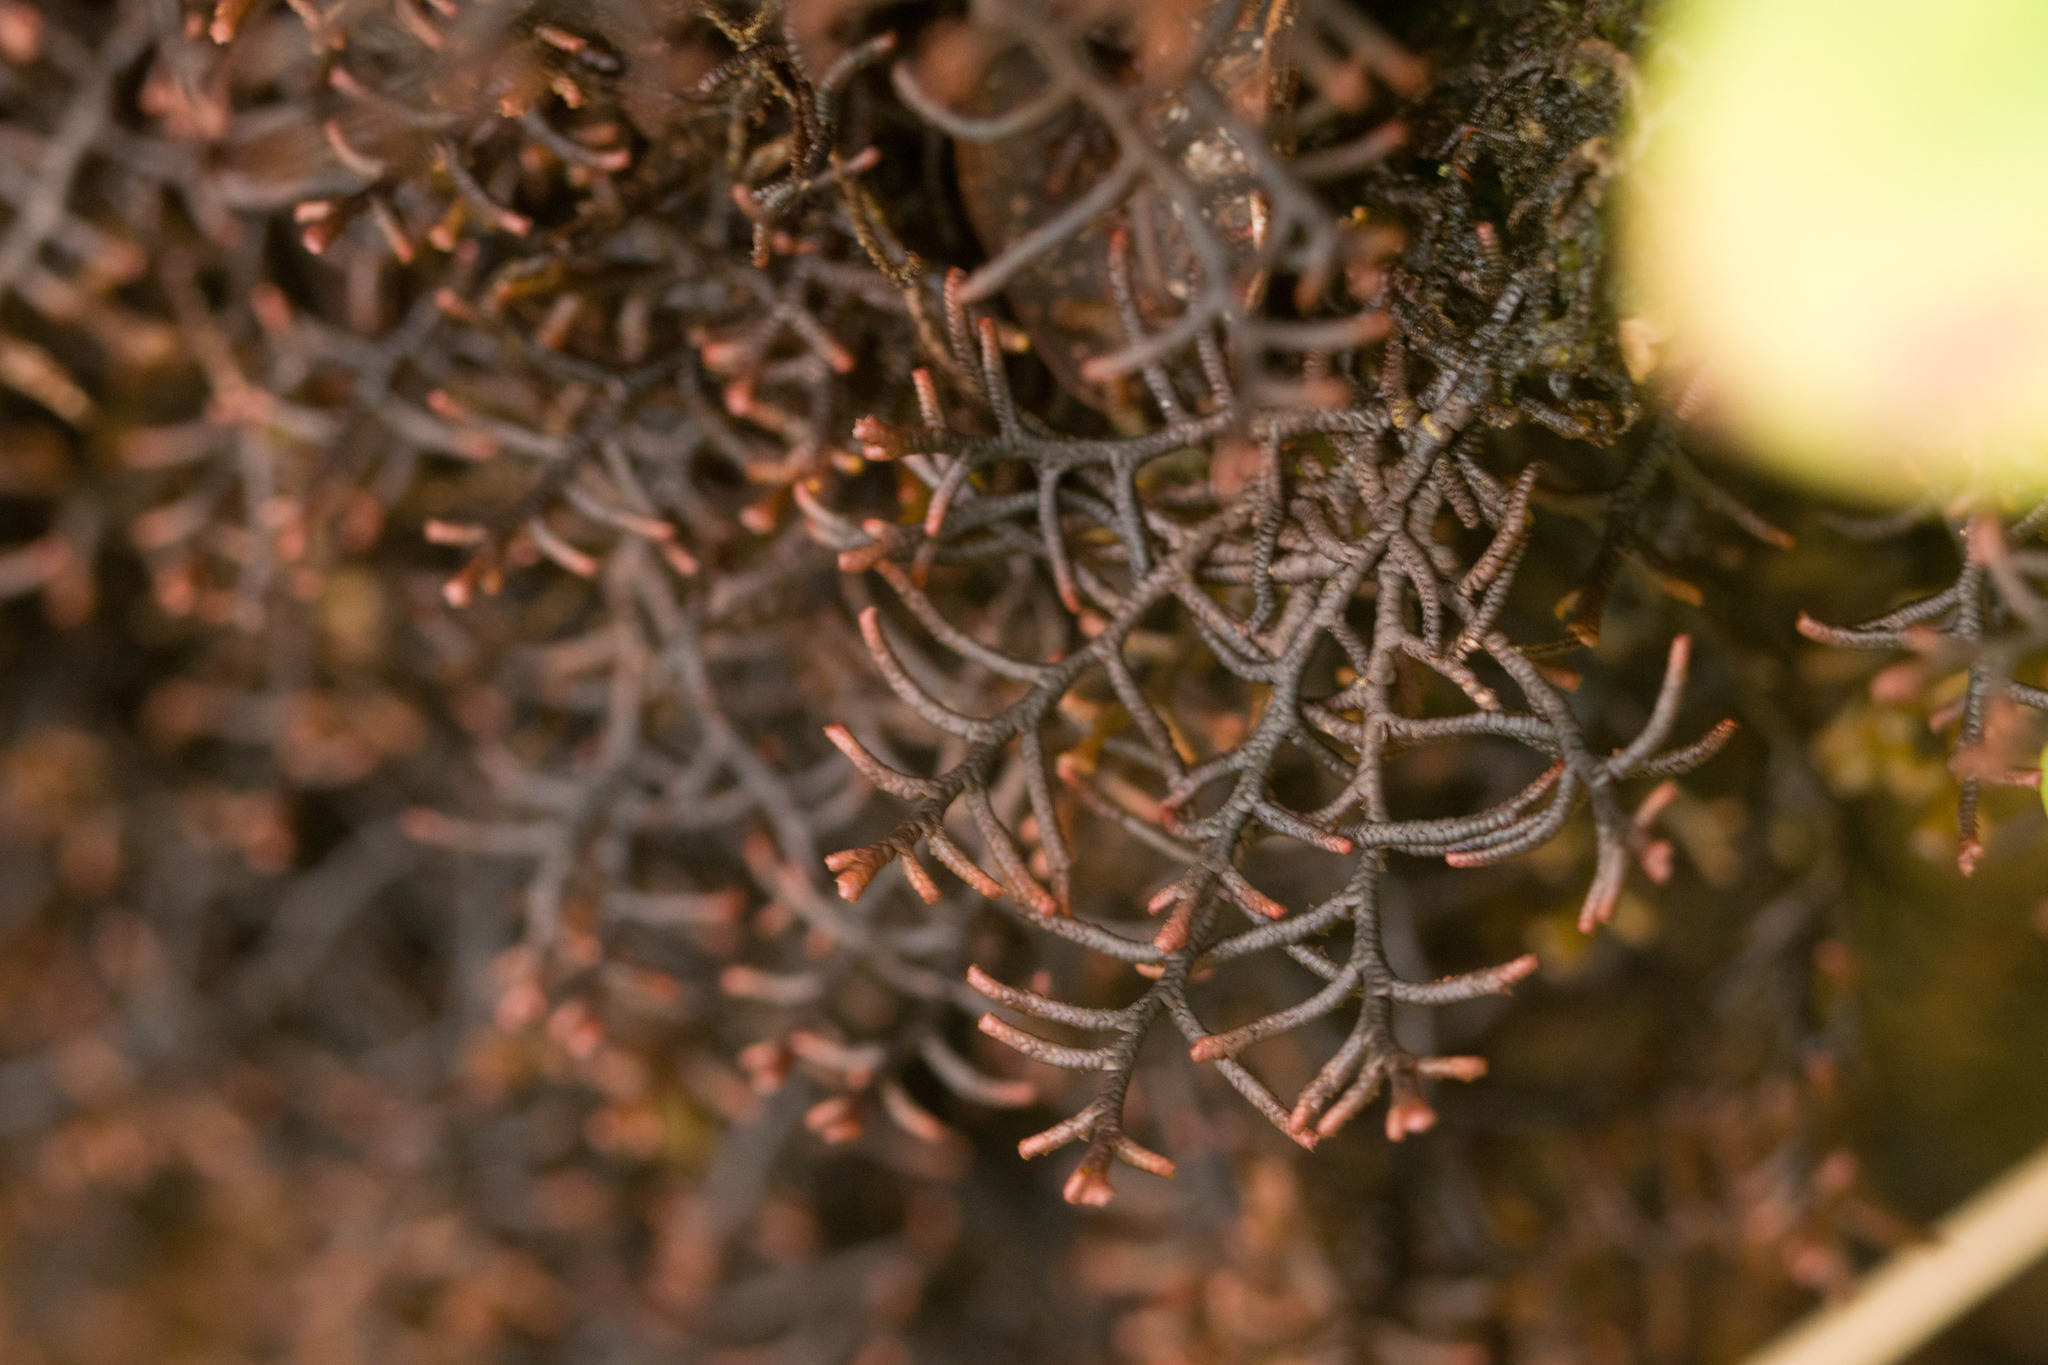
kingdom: Plantae
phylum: Marchantiophyta
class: Jungermanniopsida
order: Porellales
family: Frullaniaceae
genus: Frullania
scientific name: Frullania apiculata
